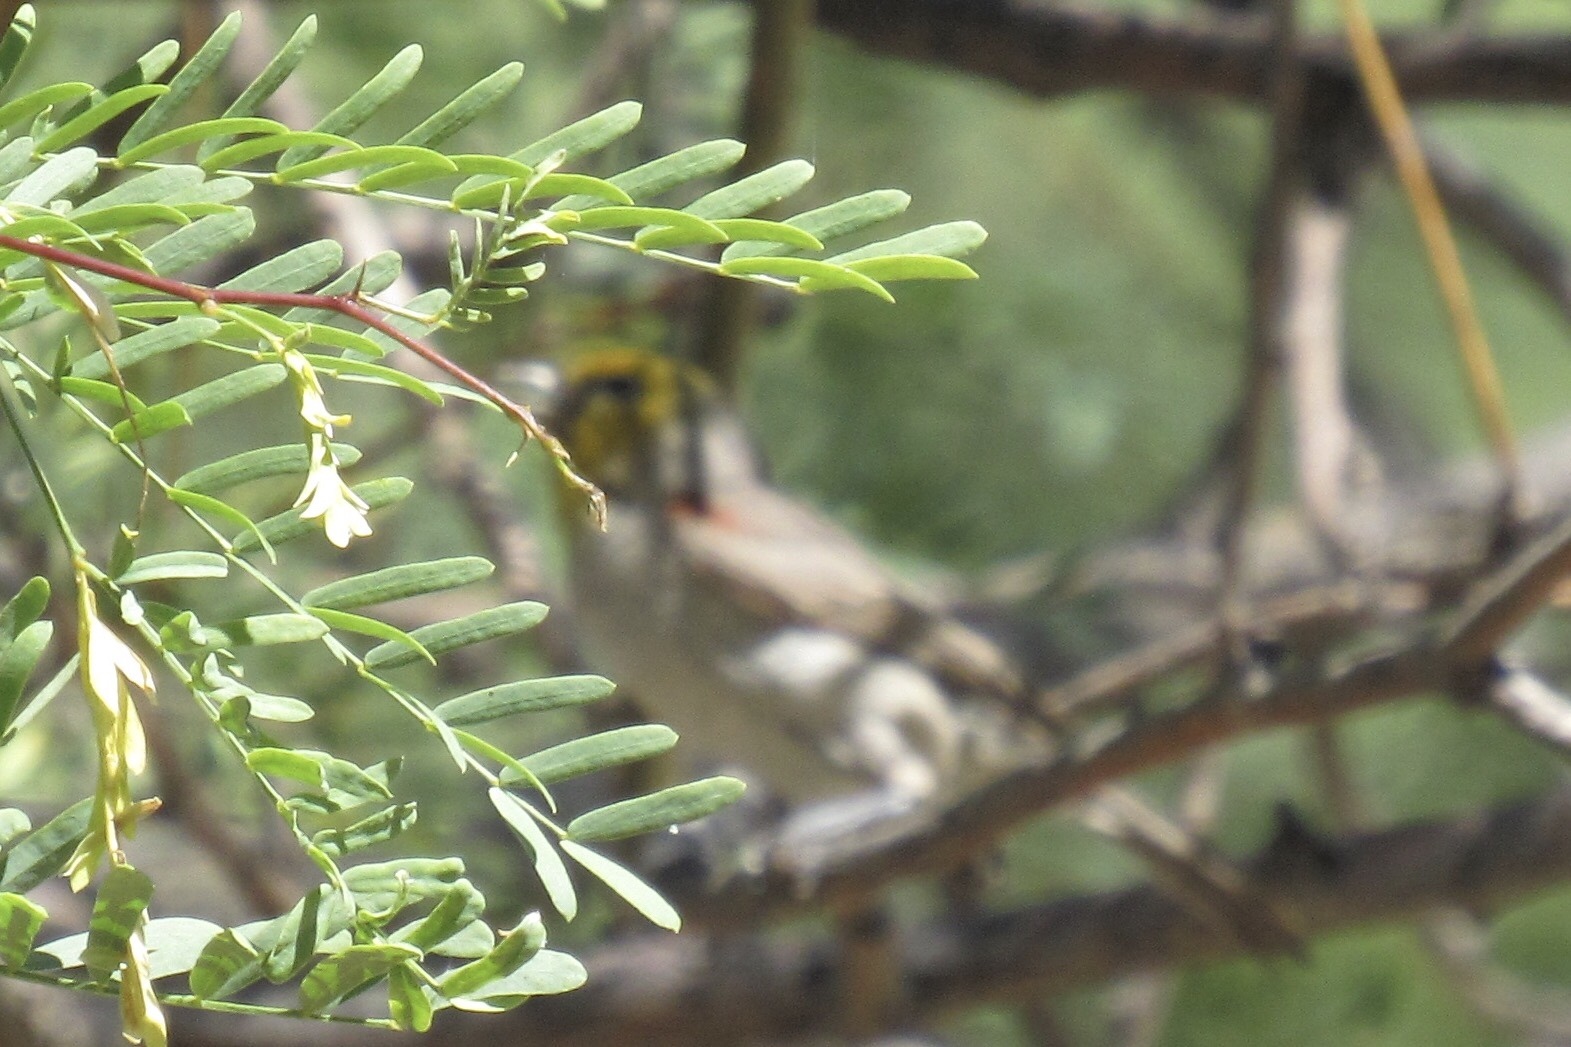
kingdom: Animalia
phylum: Chordata
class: Aves
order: Passeriformes
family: Remizidae
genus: Auriparus
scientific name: Auriparus flaviceps
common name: Verdin
